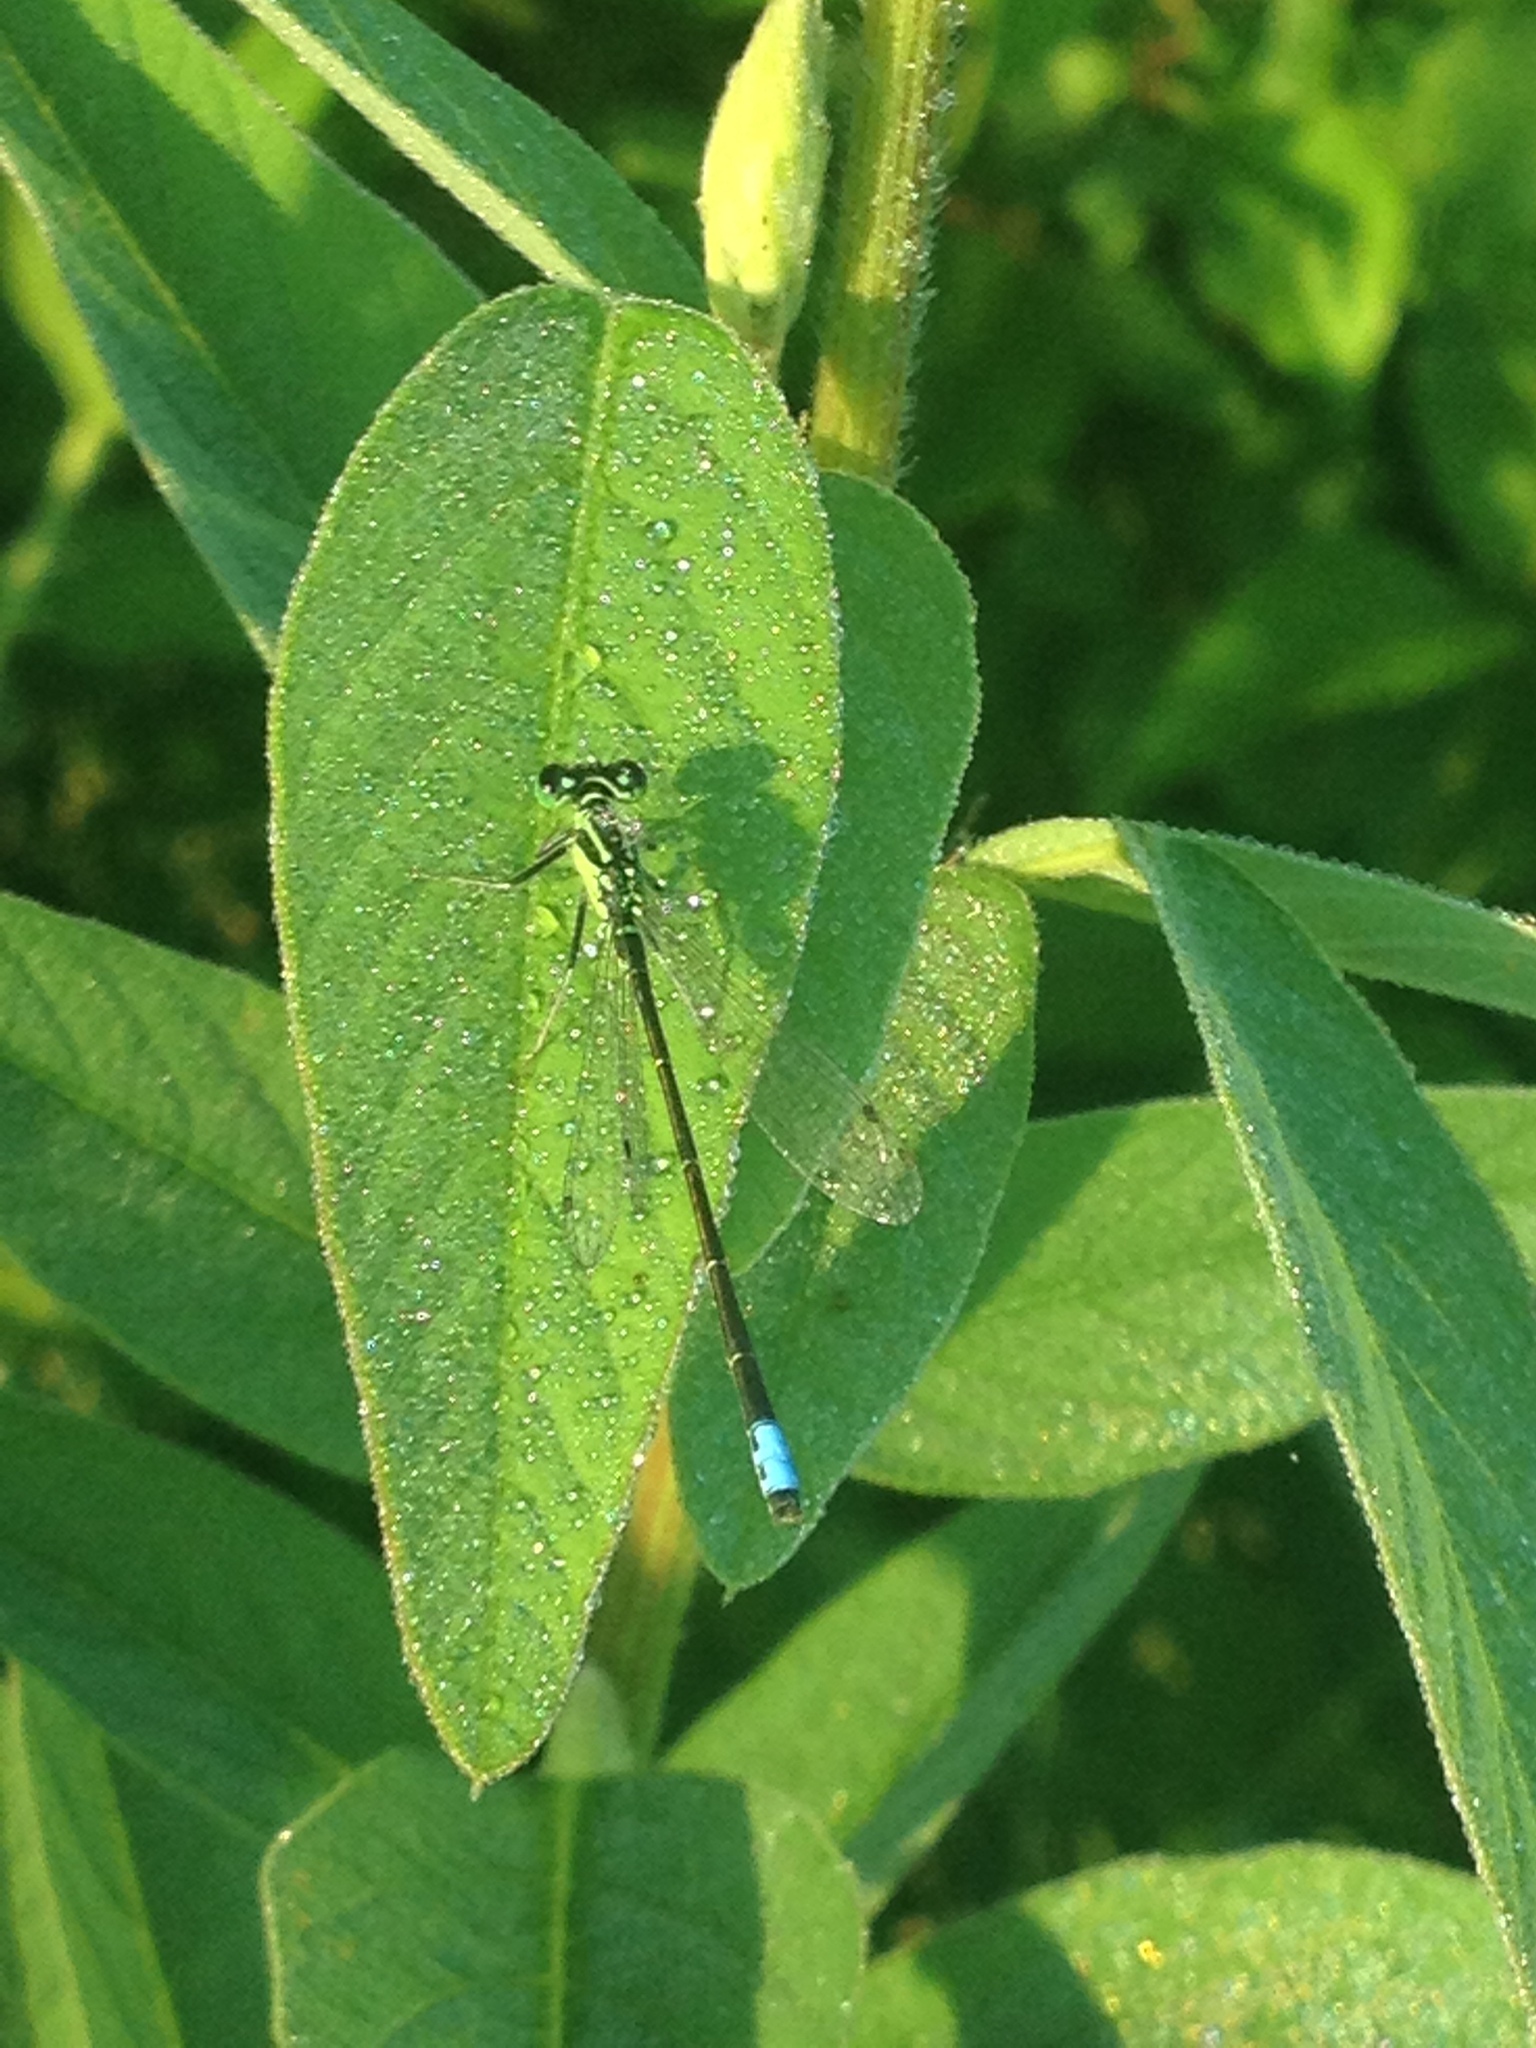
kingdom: Animalia
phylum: Arthropoda
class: Insecta
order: Odonata
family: Coenagrionidae
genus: Ischnura
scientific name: Ischnura verticalis
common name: Eastern forktail
